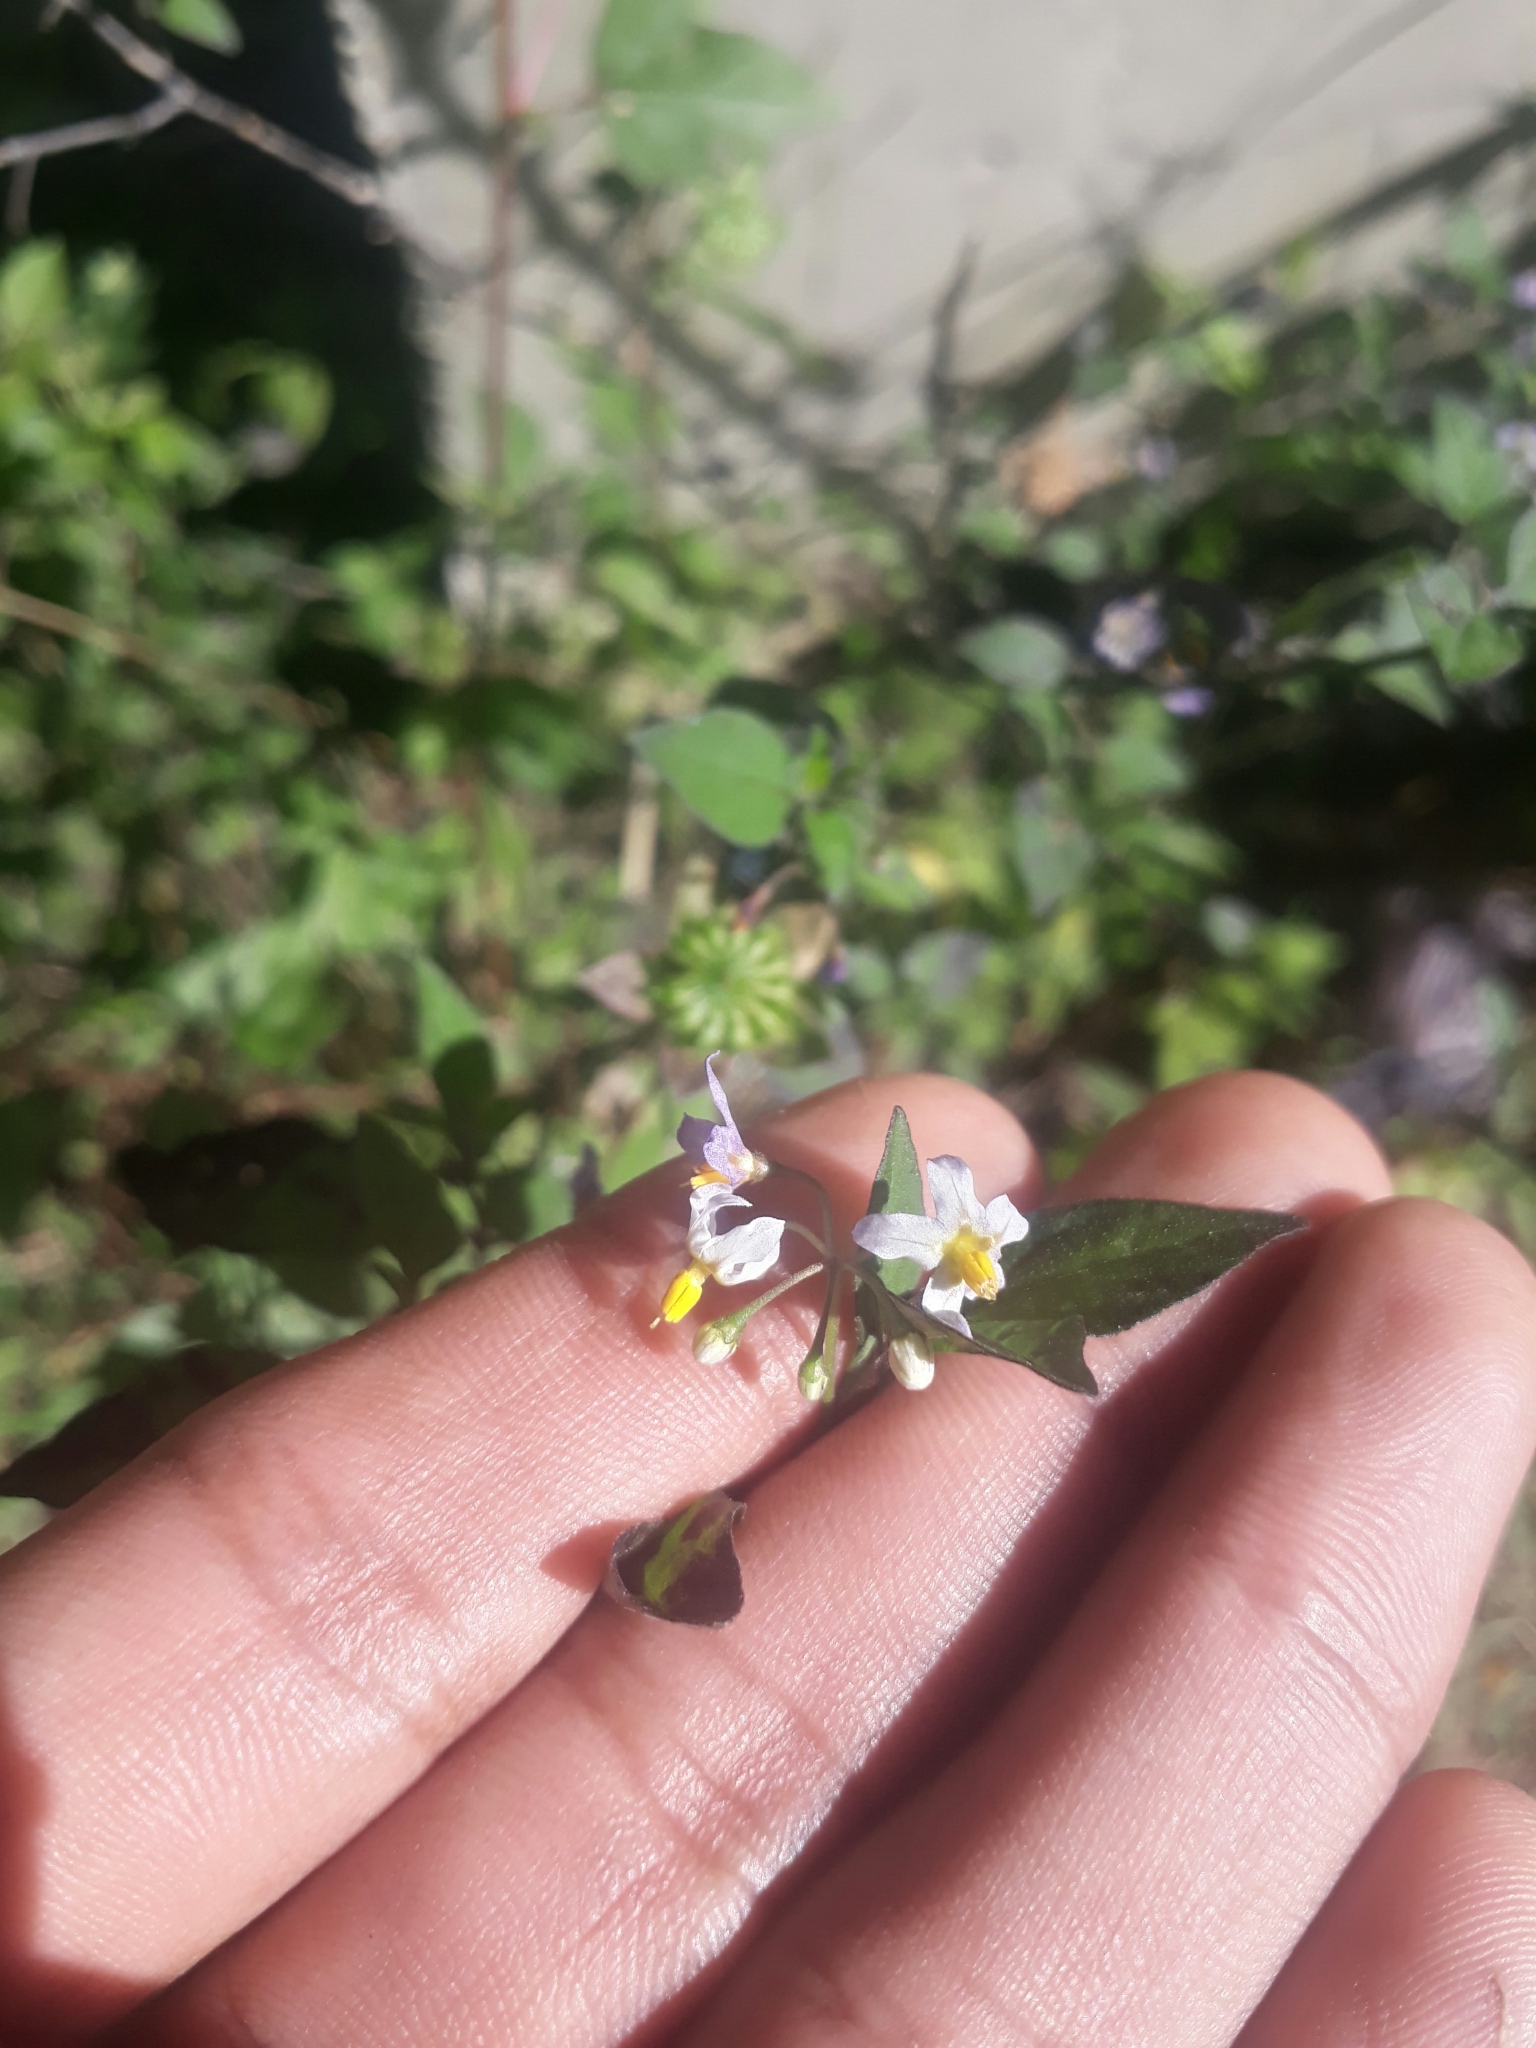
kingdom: Plantae
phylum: Tracheophyta
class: Magnoliopsida
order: Solanales
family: Solanaceae
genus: Solanum
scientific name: Solanum nigrescens
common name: Divine nightshade
